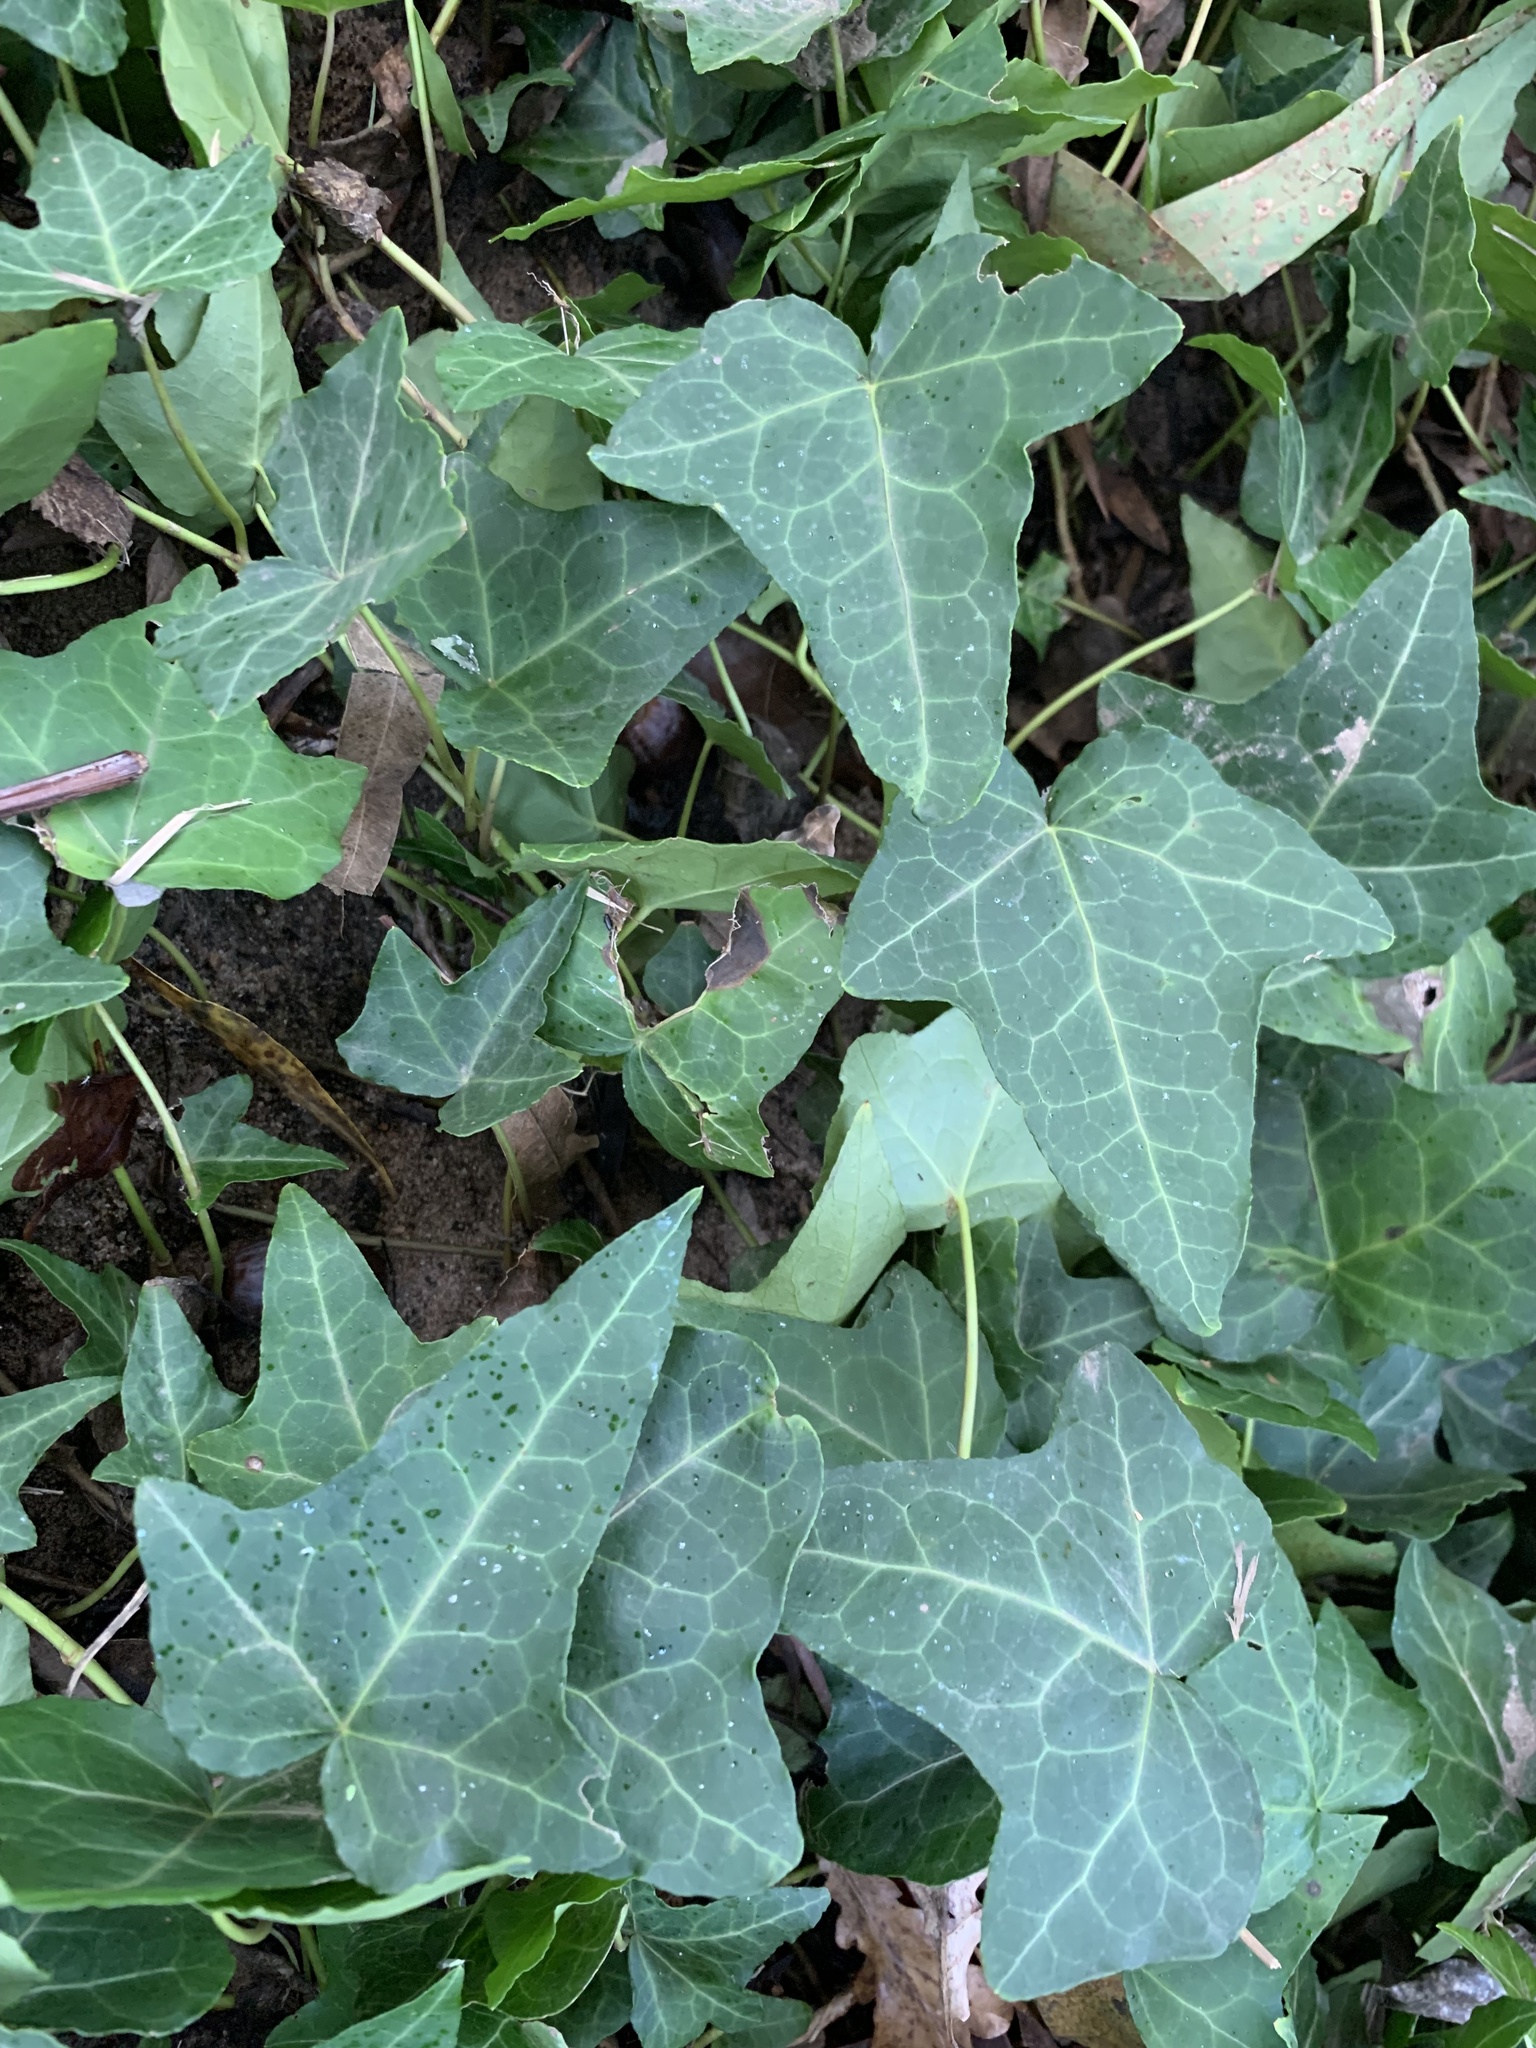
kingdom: Plantae
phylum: Tracheophyta
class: Magnoliopsida
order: Apiales
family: Araliaceae
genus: Hedera
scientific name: Hedera helix
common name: Ivy
